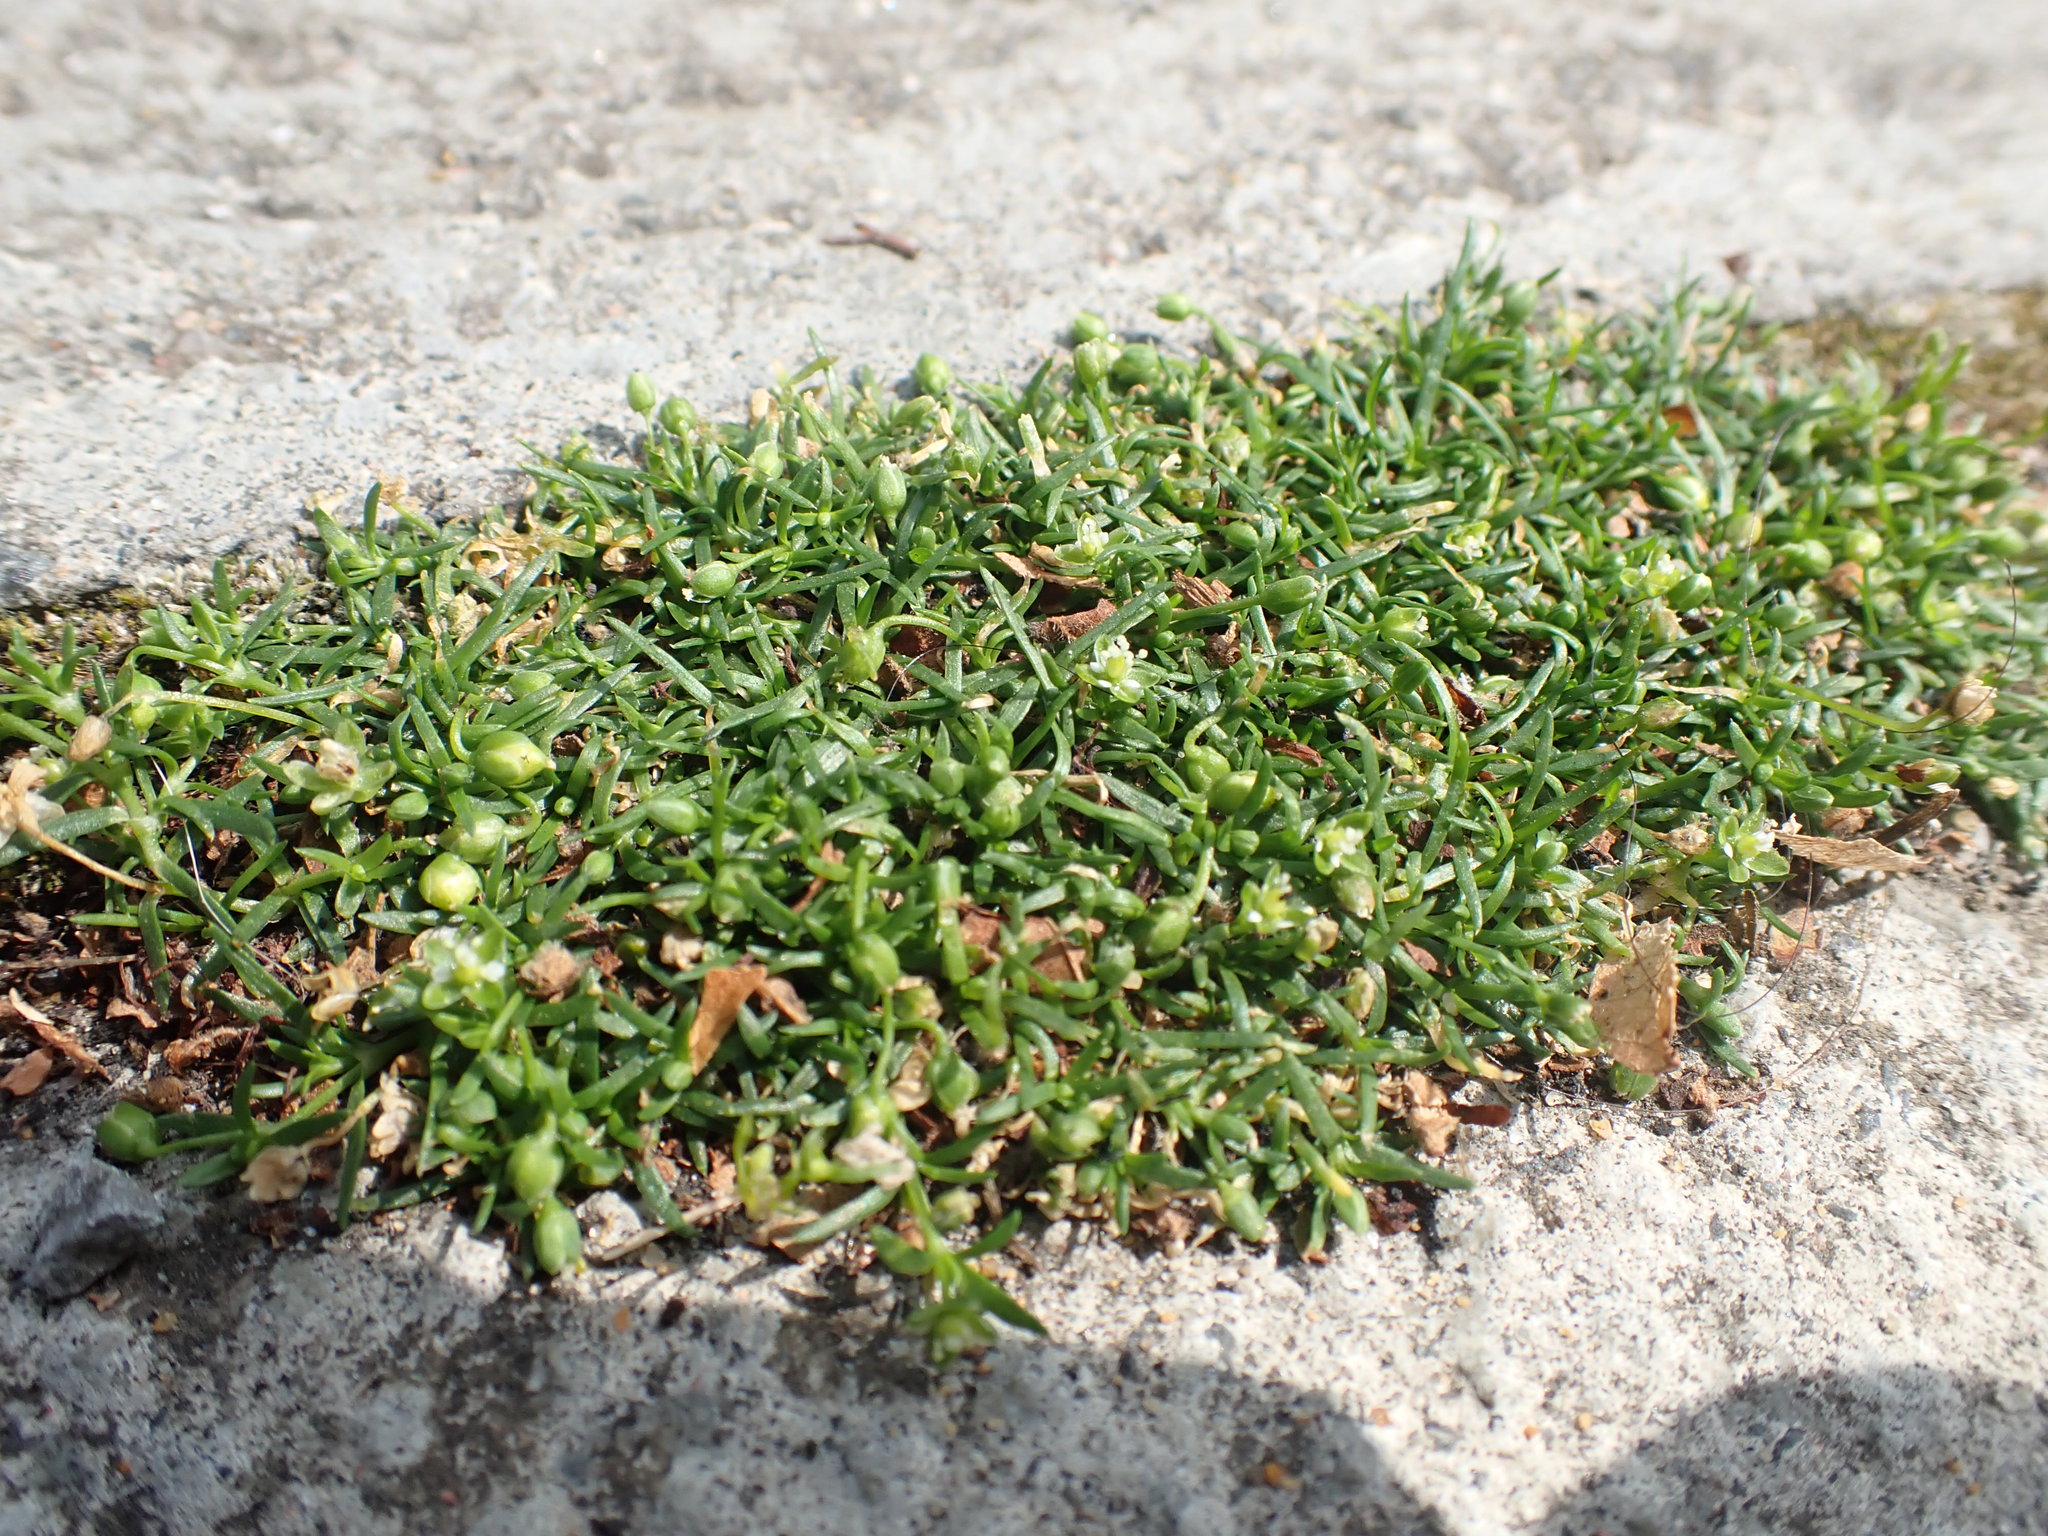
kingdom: Plantae
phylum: Tracheophyta
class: Magnoliopsida
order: Caryophyllales
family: Caryophyllaceae
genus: Sagina
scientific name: Sagina procumbens
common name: Procumbent pearlwort
